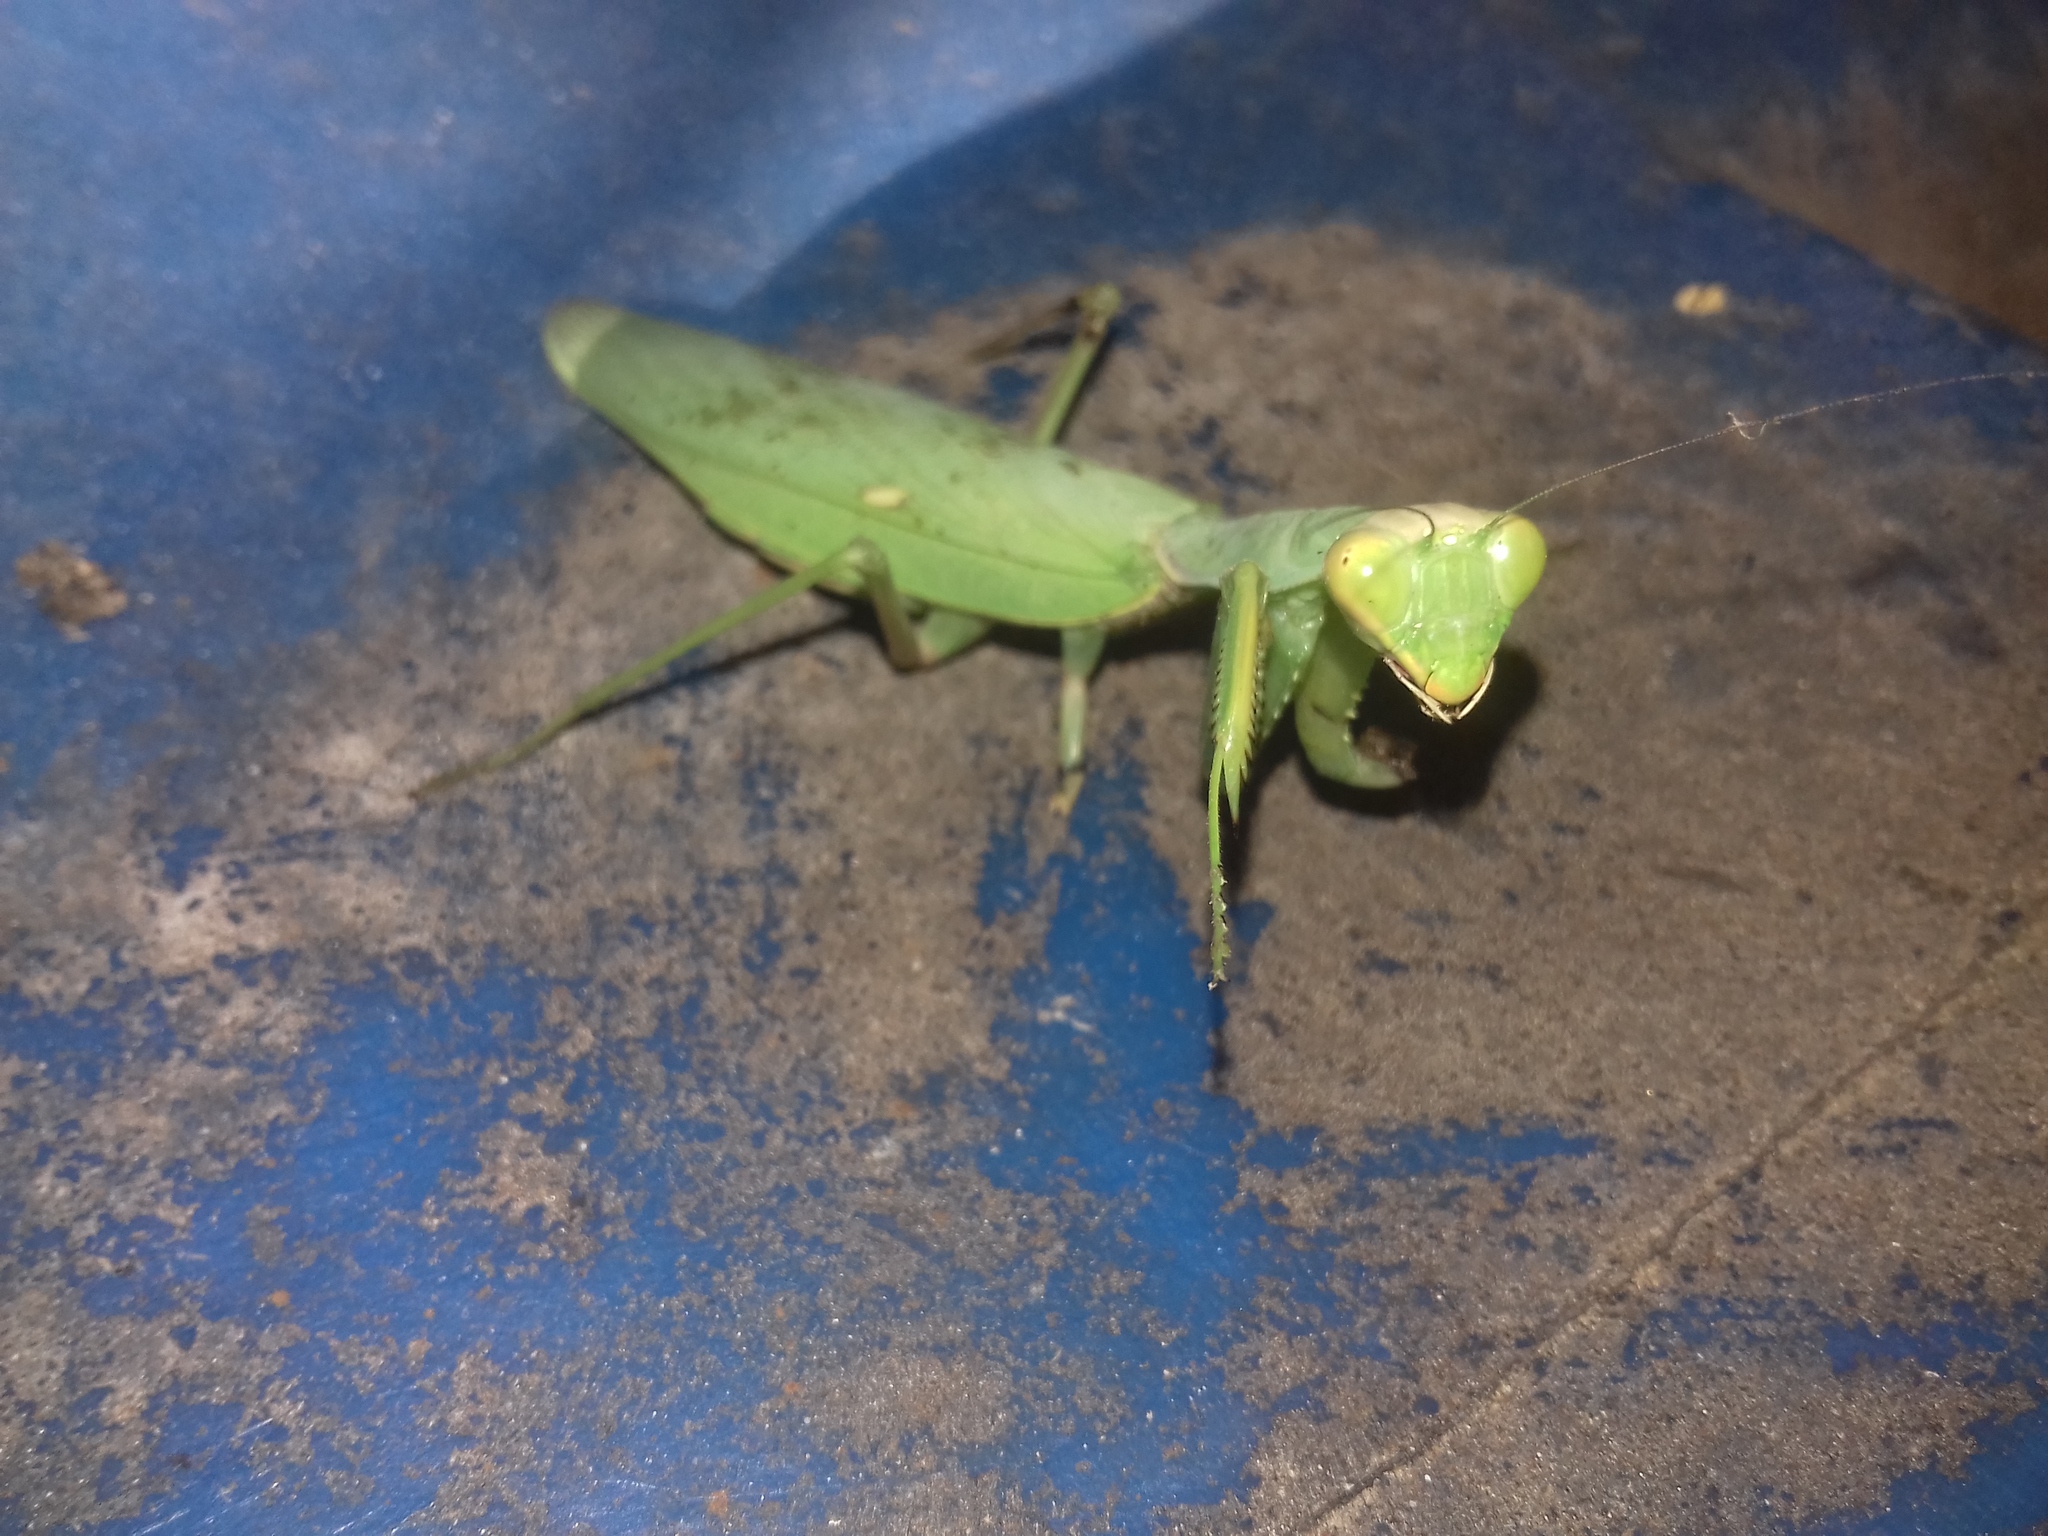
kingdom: Animalia
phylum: Arthropoda
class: Insecta
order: Mantodea
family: Mantidae
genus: Hierodula
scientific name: Hierodula transcaucasica
